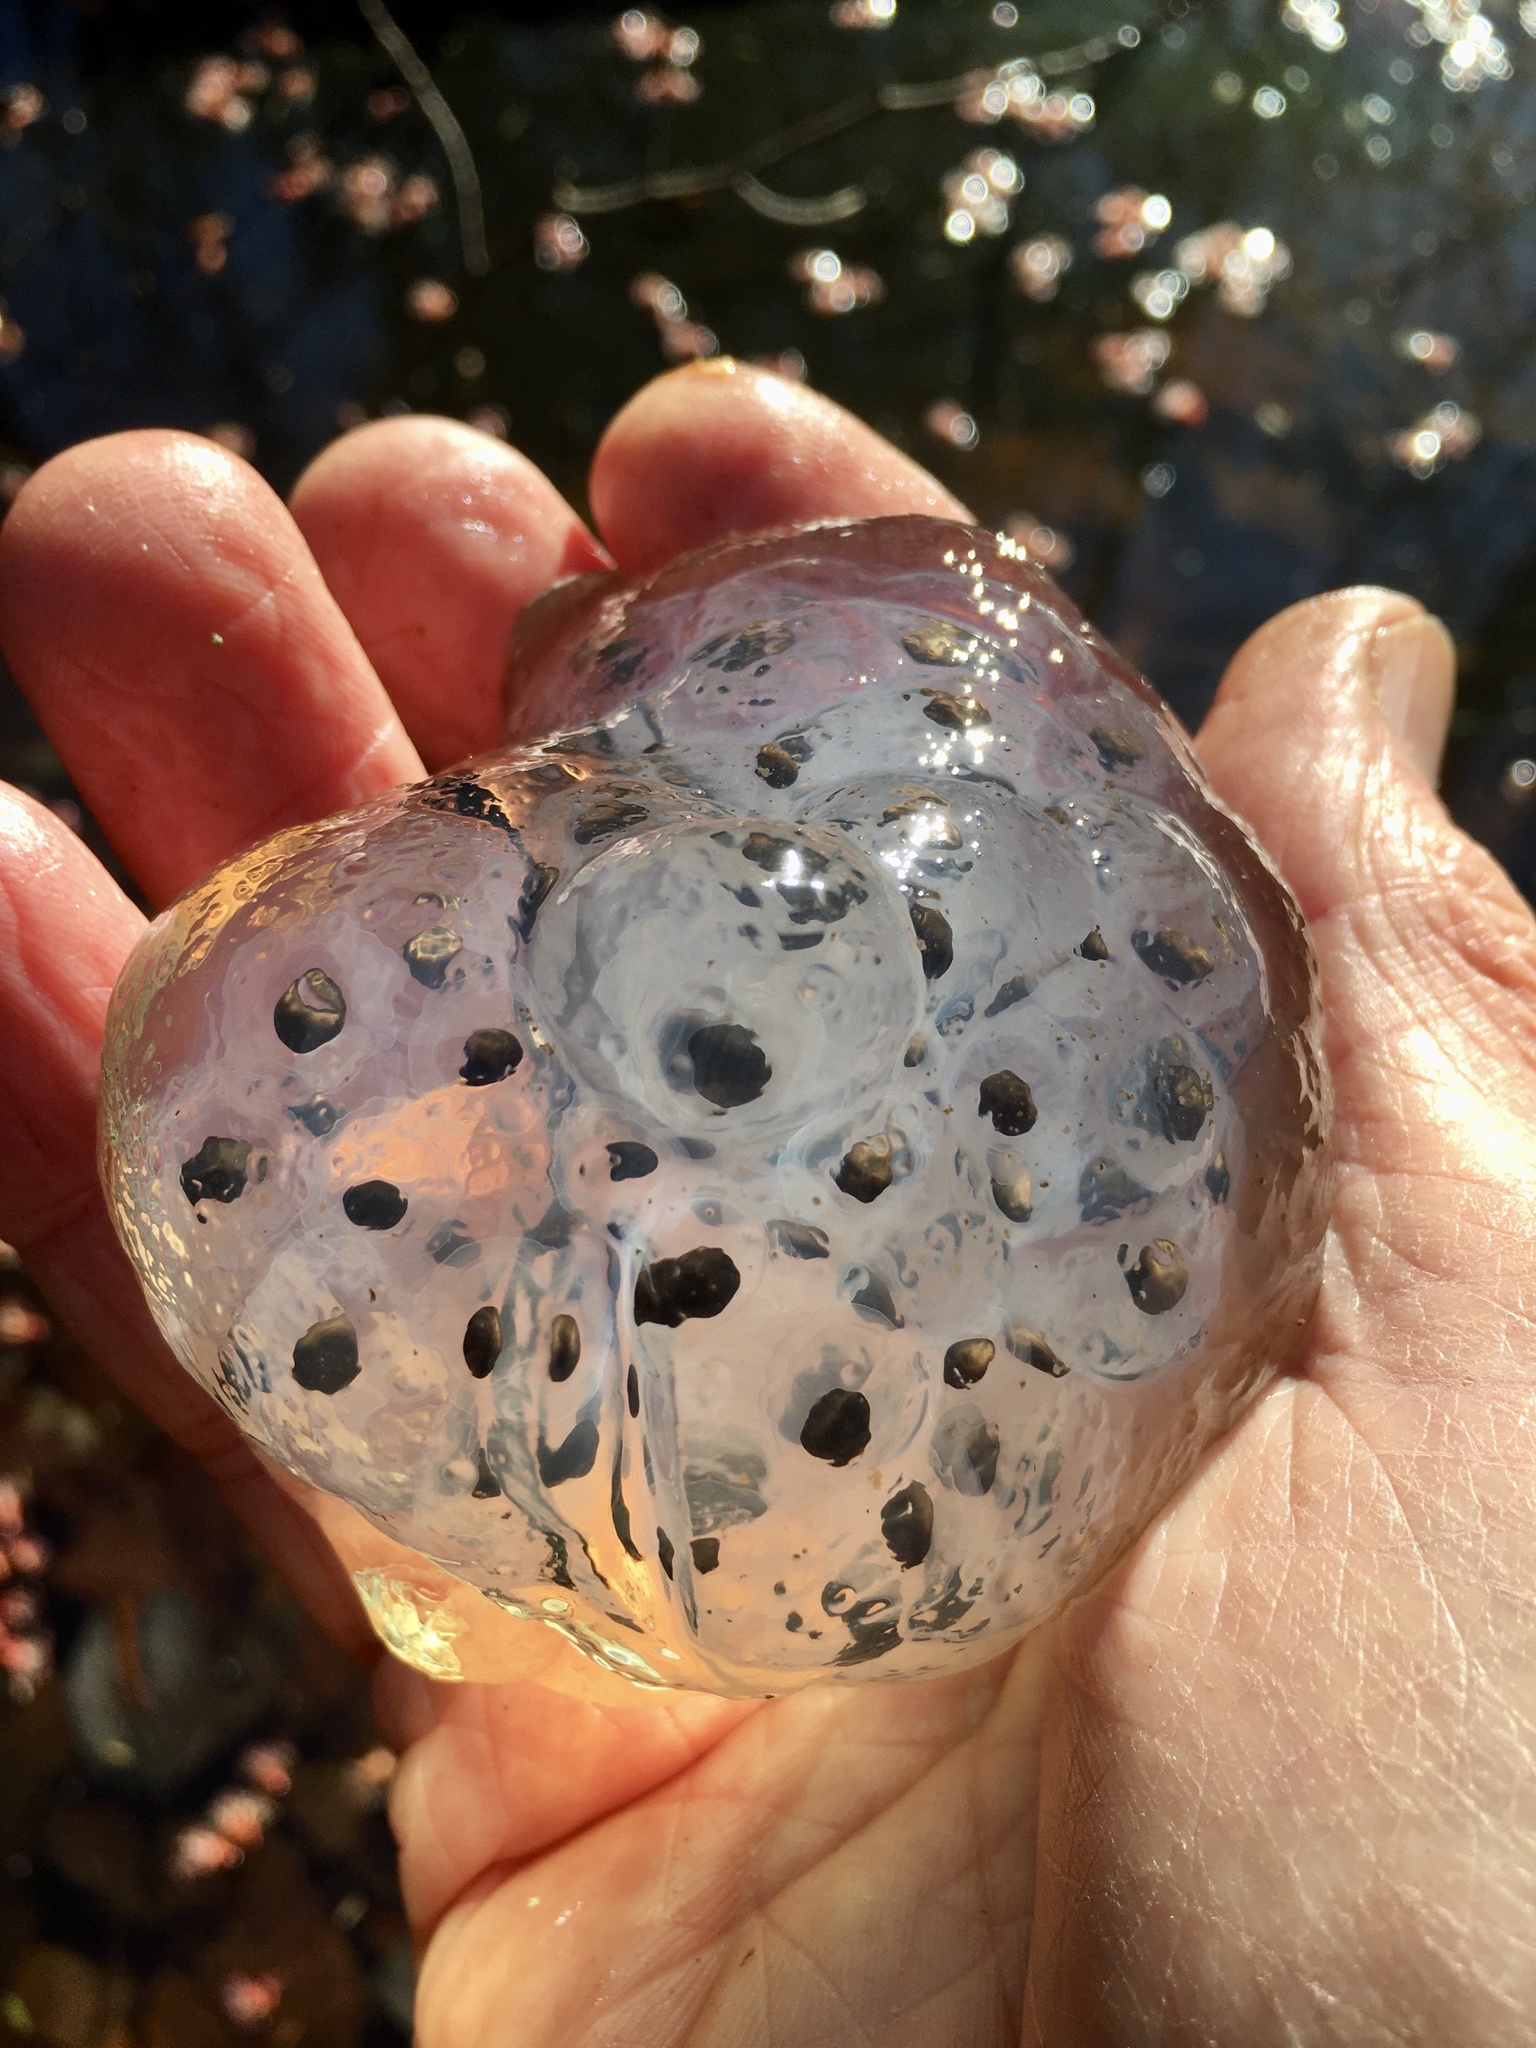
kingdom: Animalia
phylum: Chordata
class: Amphibia
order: Caudata
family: Ambystomatidae
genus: Ambystoma
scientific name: Ambystoma maculatum
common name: Spotted salamander
